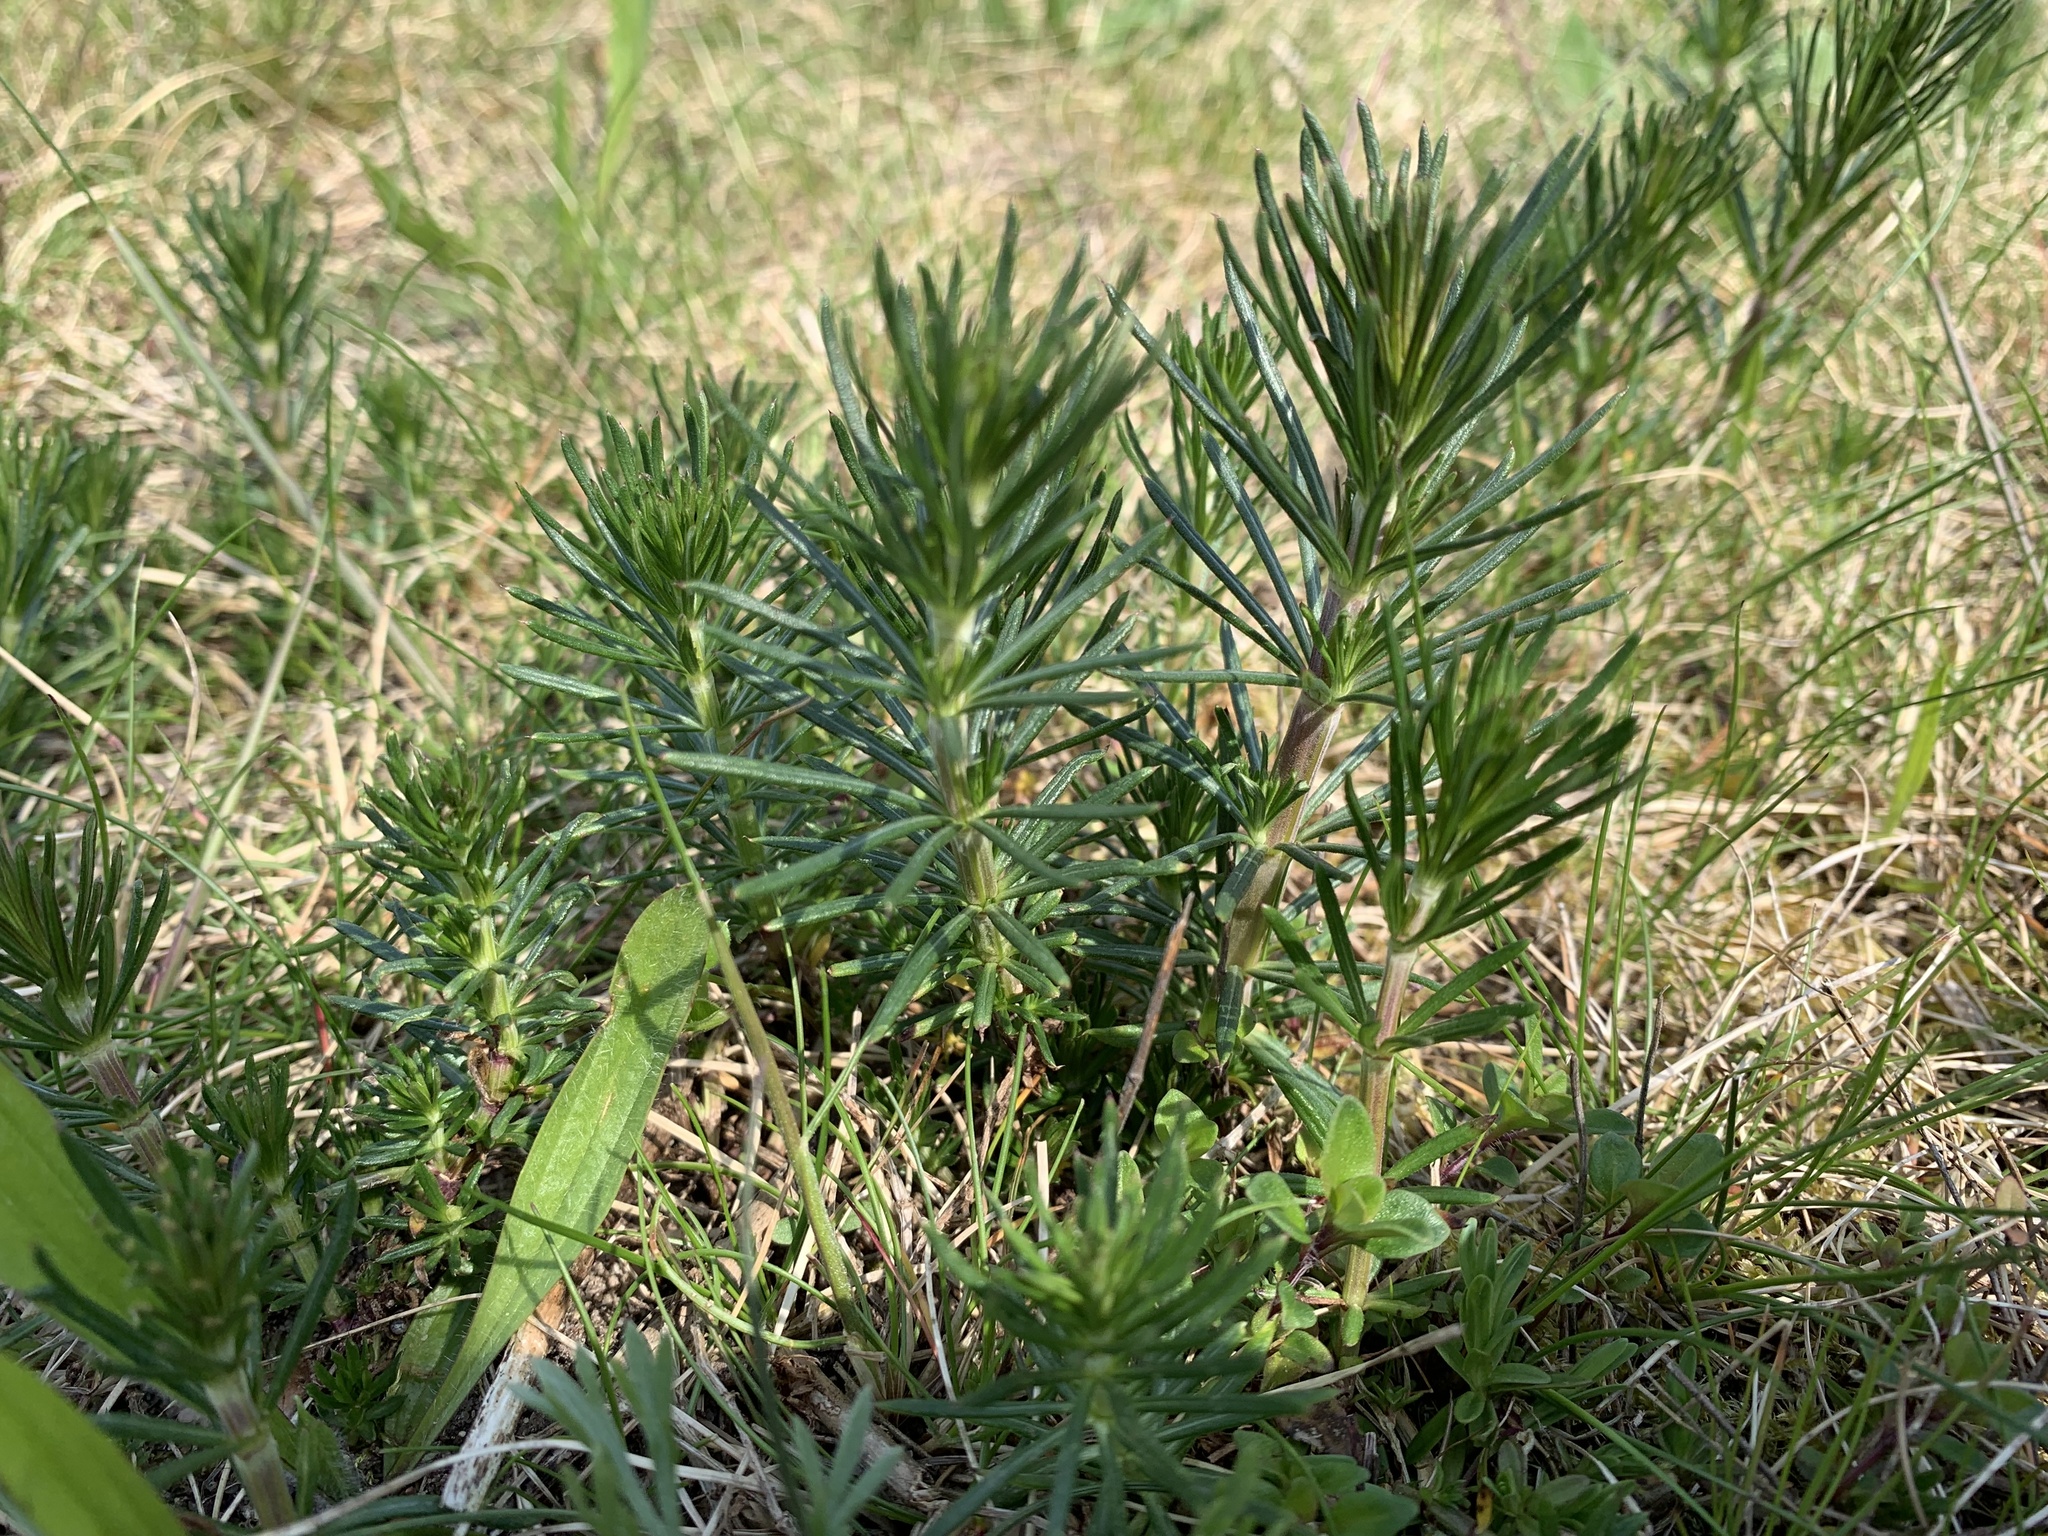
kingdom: Plantae
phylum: Tracheophyta
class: Magnoliopsida
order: Gentianales
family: Rubiaceae
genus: Galium
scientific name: Galium verum
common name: Lady's bedstraw
